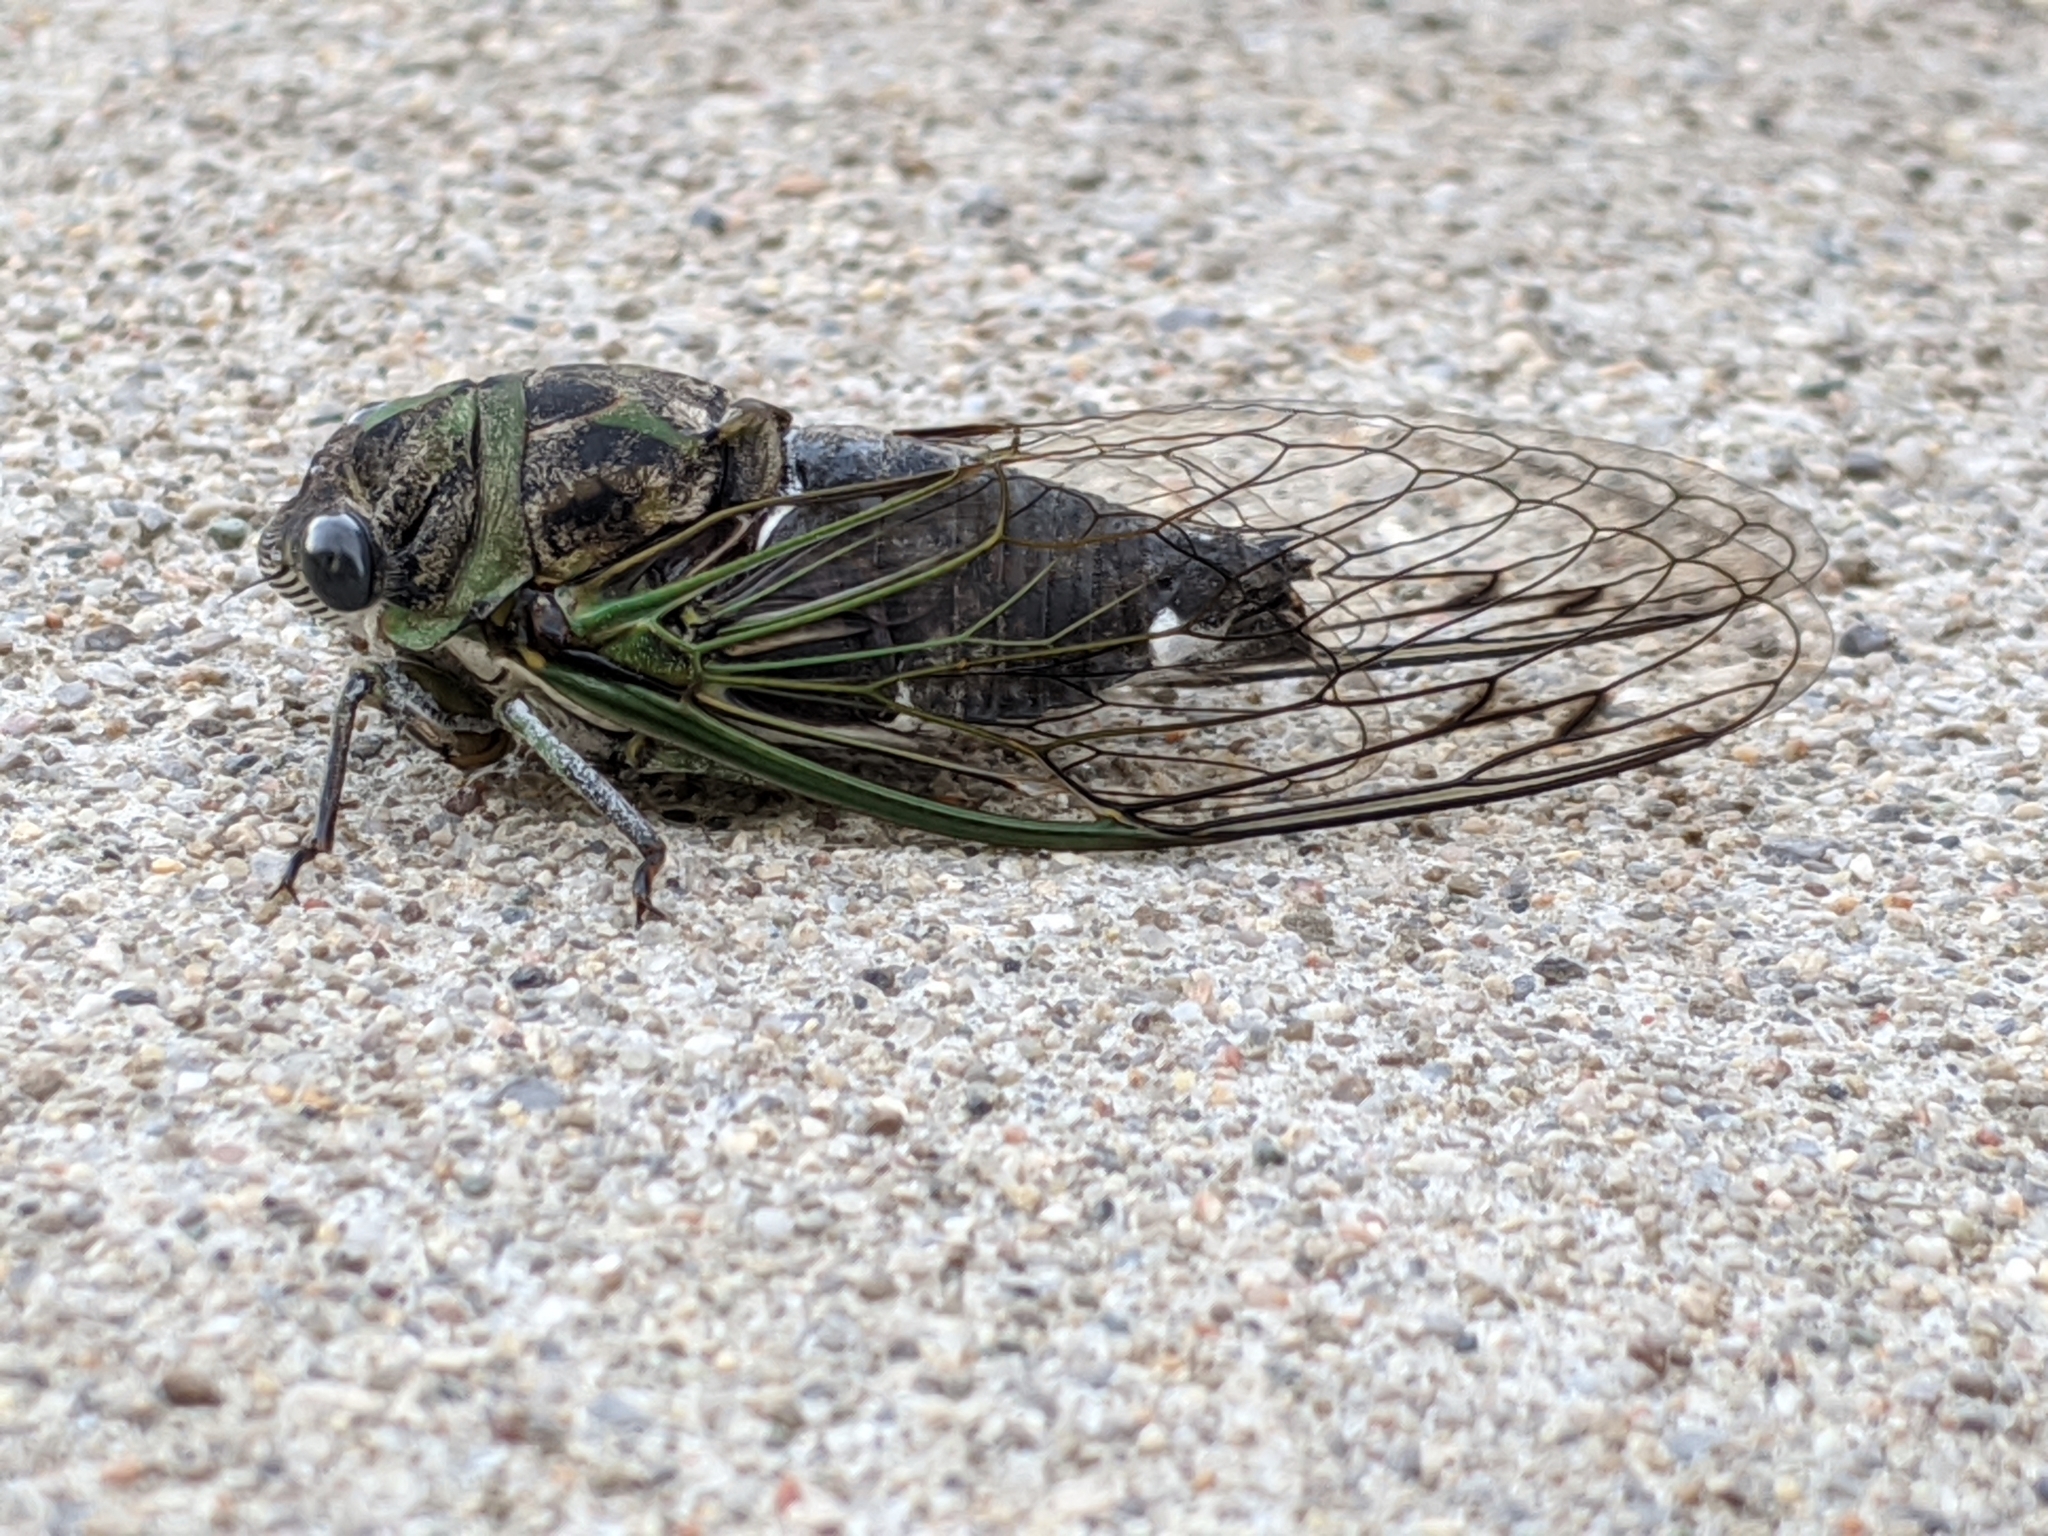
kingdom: Animalia
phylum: Arthropoda
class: Insecta
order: Hemiptera
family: Cicadidae
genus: Neotibicen
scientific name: Neotibicen linnei
